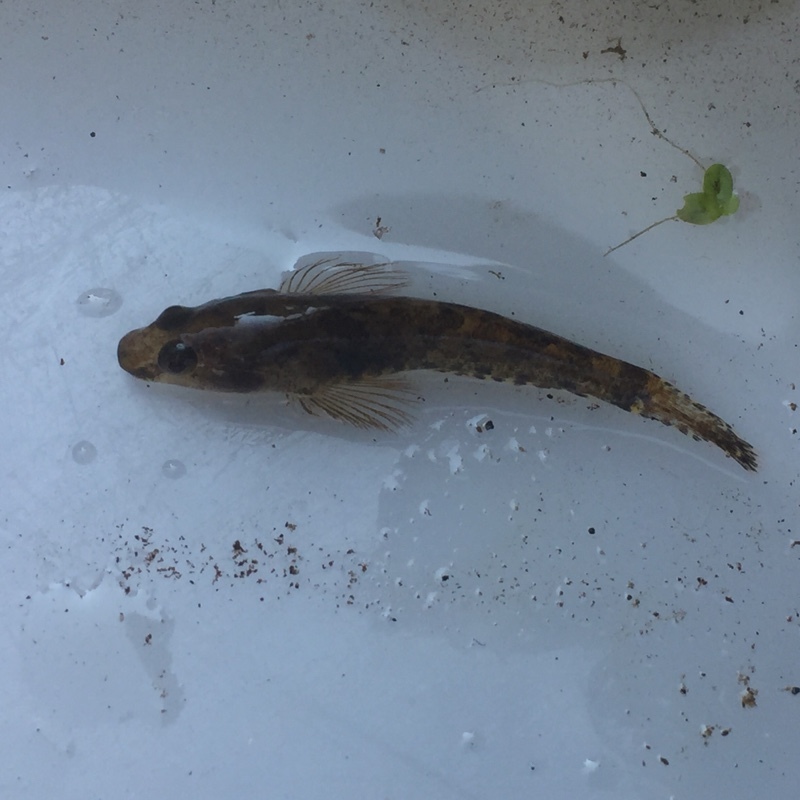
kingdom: Animalia
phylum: Chordata
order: Perciformes
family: Gobiidae
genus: Proterorhinus
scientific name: Proterorhinus semilunaris
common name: Western tubenose goby
